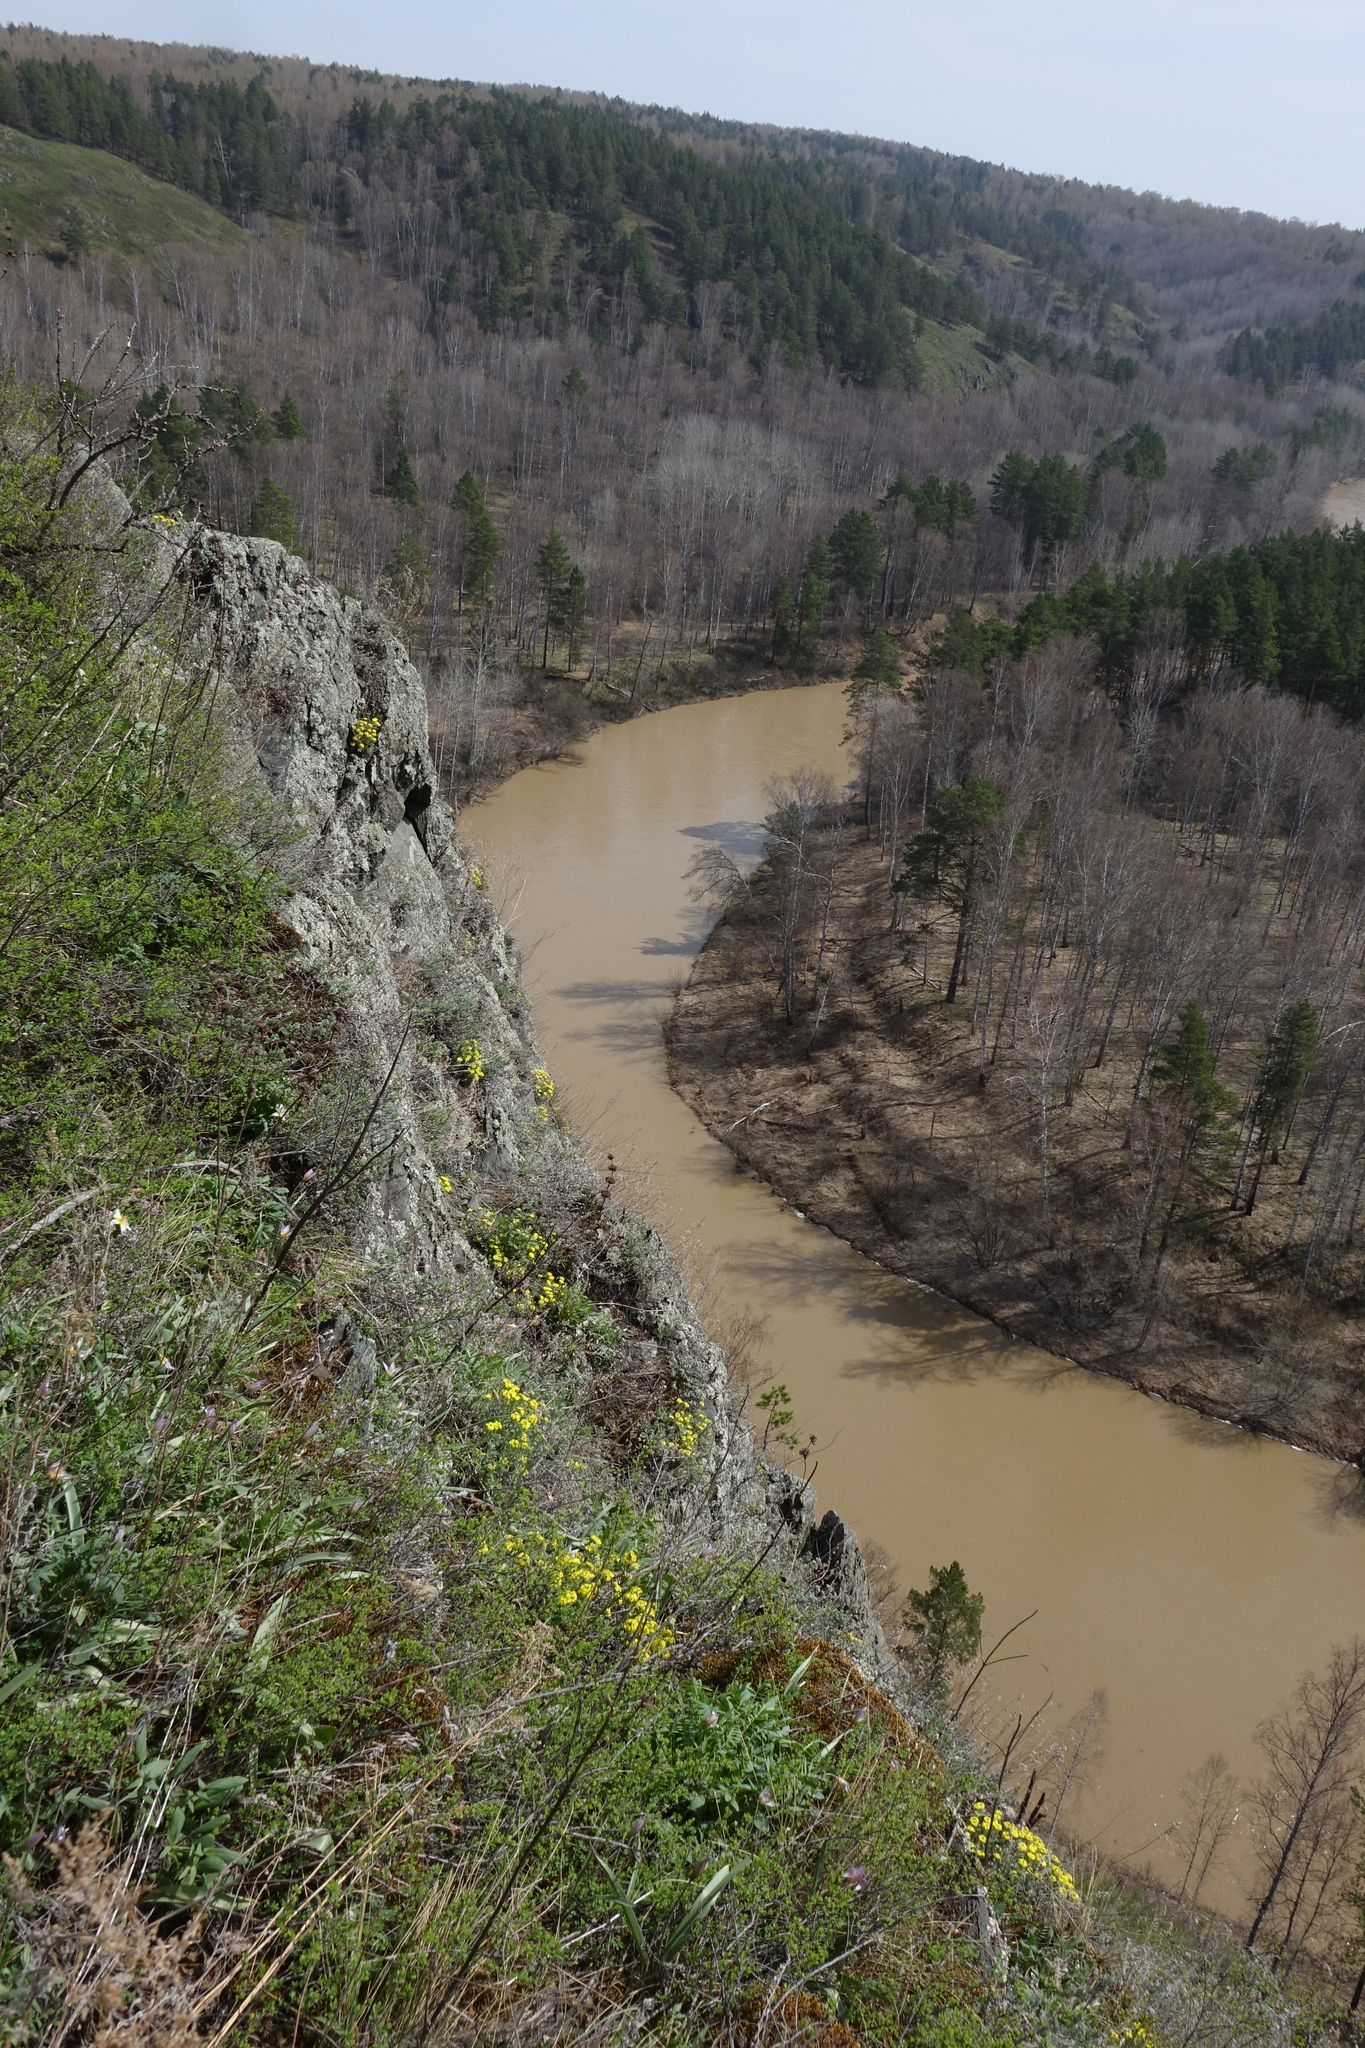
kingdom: Plantae
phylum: Tracheophyta
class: Magnoliopsida
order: Brassicales
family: Brassicaceae
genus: Alyssum
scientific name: Alyssum lenense
